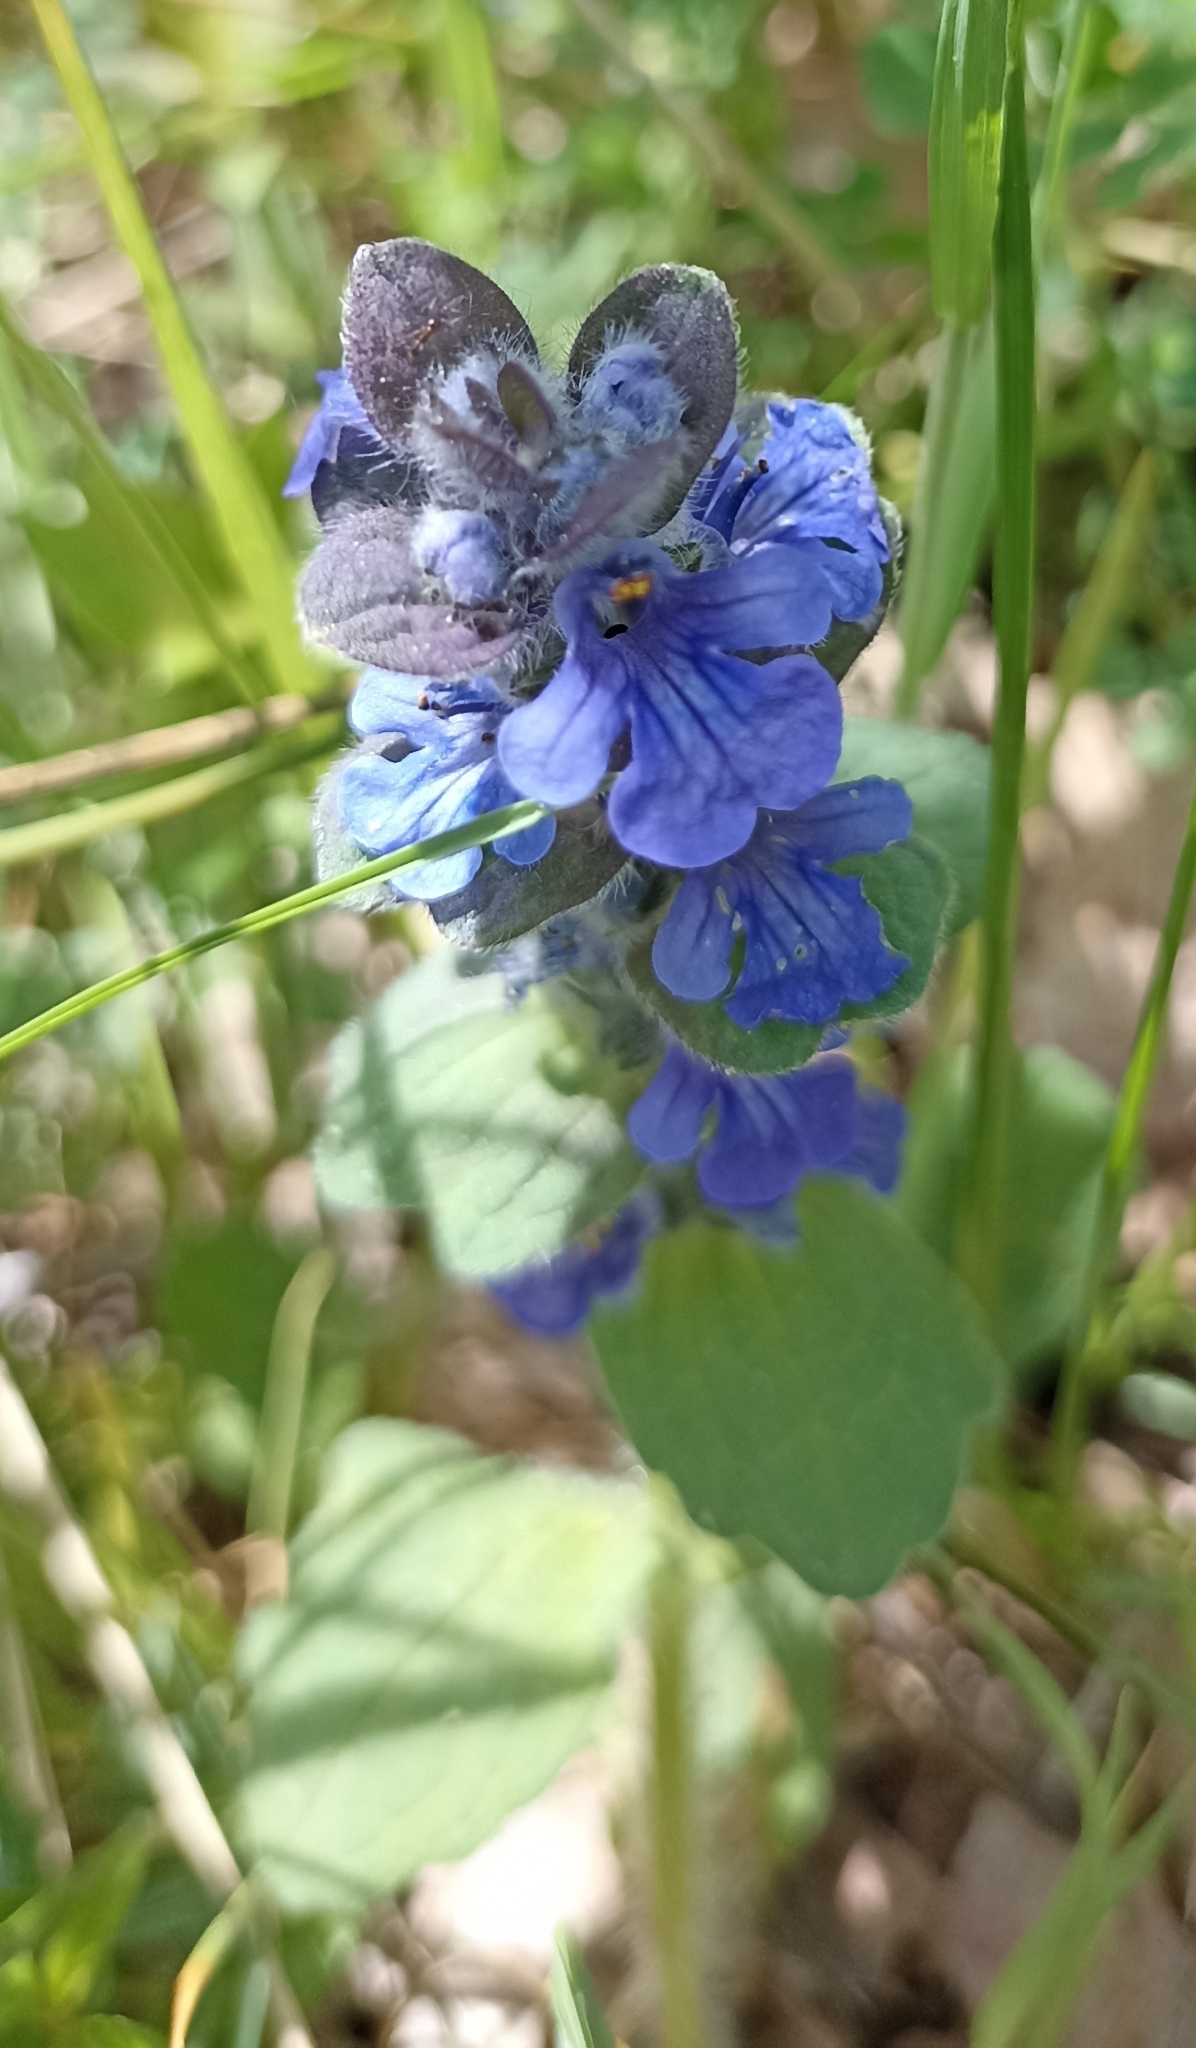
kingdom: Plantae
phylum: Tracheophyta
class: Magnoliopsida
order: Lamiales
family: Lamiaceae
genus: Ajuga
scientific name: Ajuga genevensis
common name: Blue bugle
